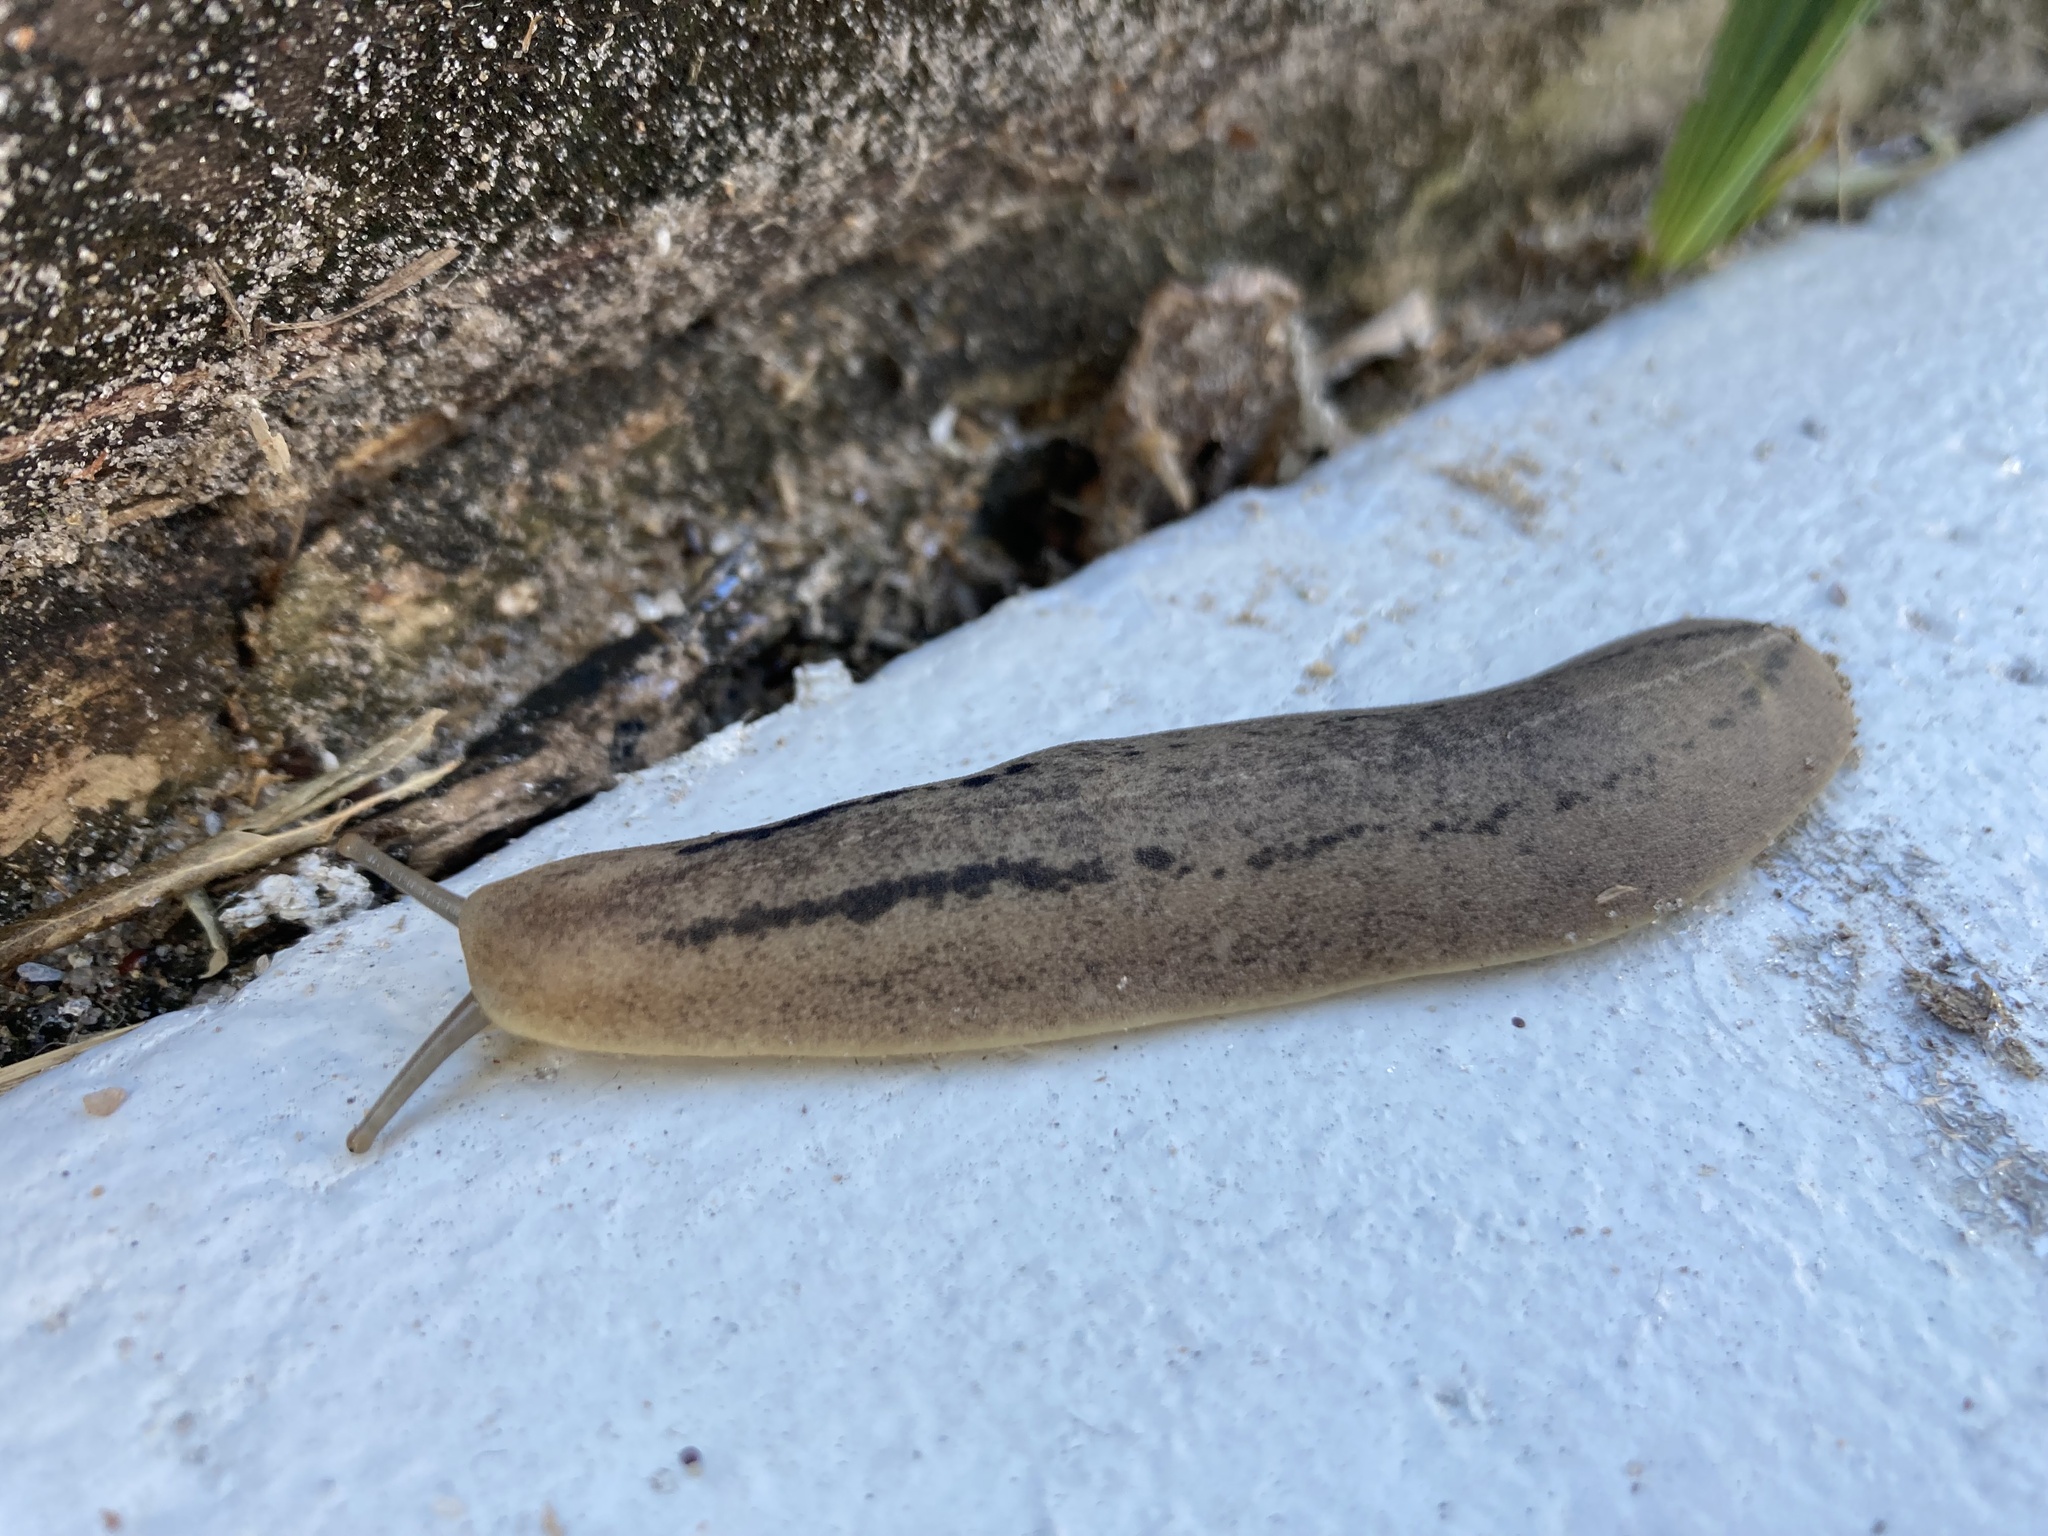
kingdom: Animalia
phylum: Mollusca
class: Gastropoda
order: Systellommatophora
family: Veronicellidae
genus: Leidyula
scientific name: Leidyula floridana
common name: Florida leatherleaf
